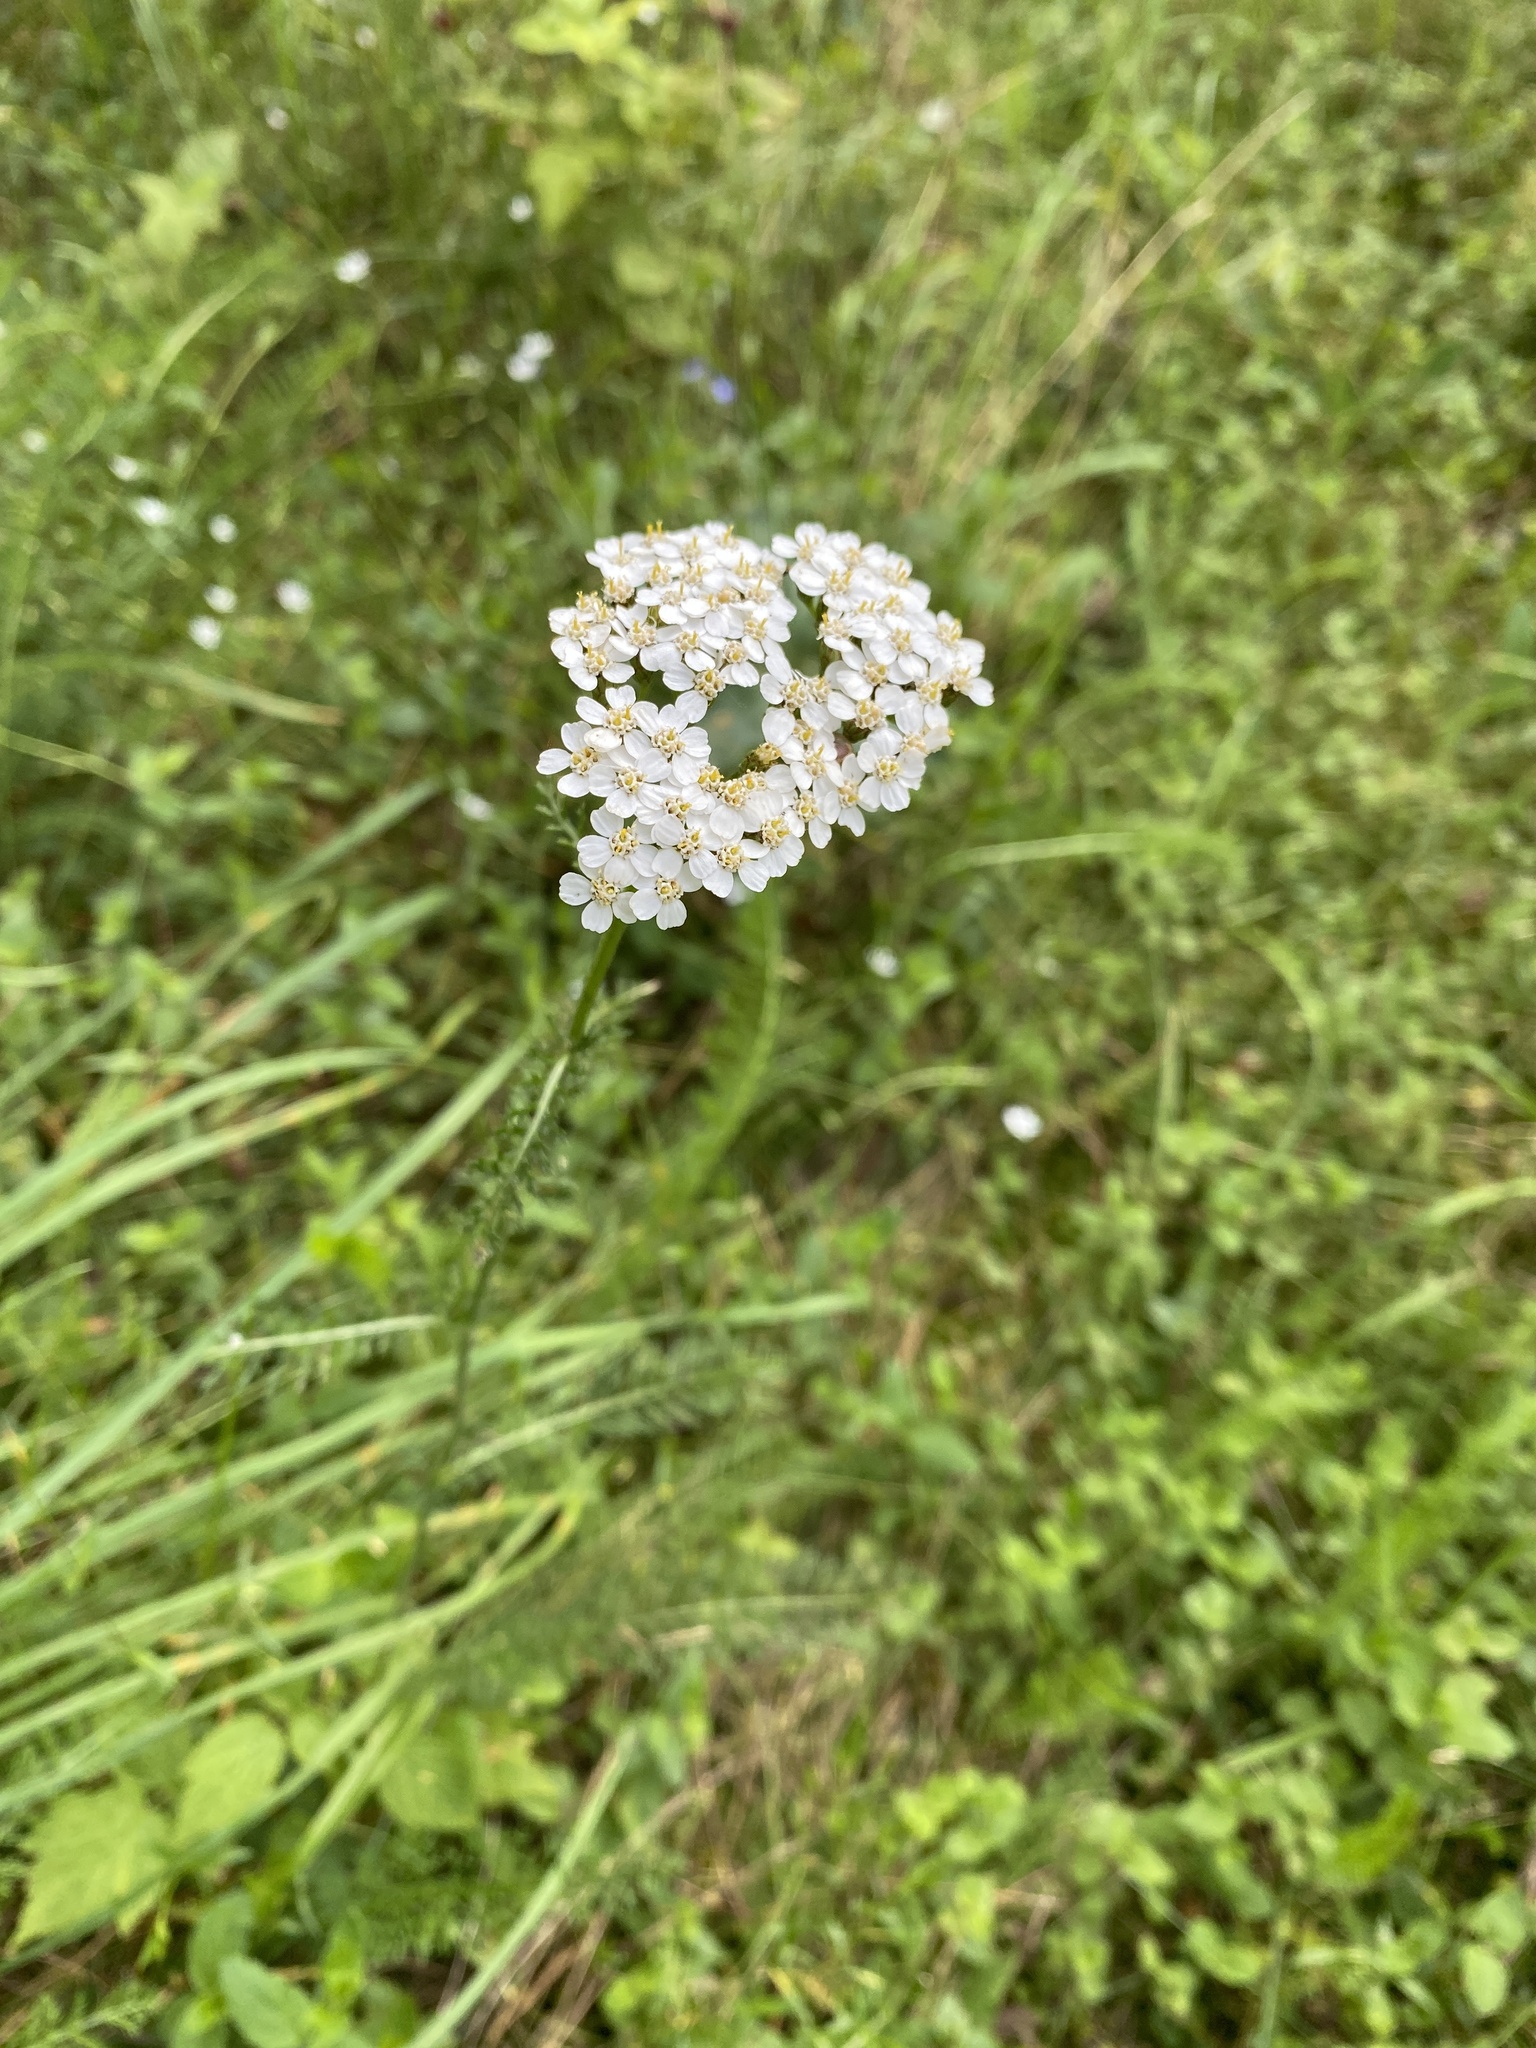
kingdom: Plantae
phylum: Tracheophyta
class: Magnoliopsida
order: Asterales
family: Asteraceae
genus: Achillea
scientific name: Achillea millefolium
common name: Yarrow
